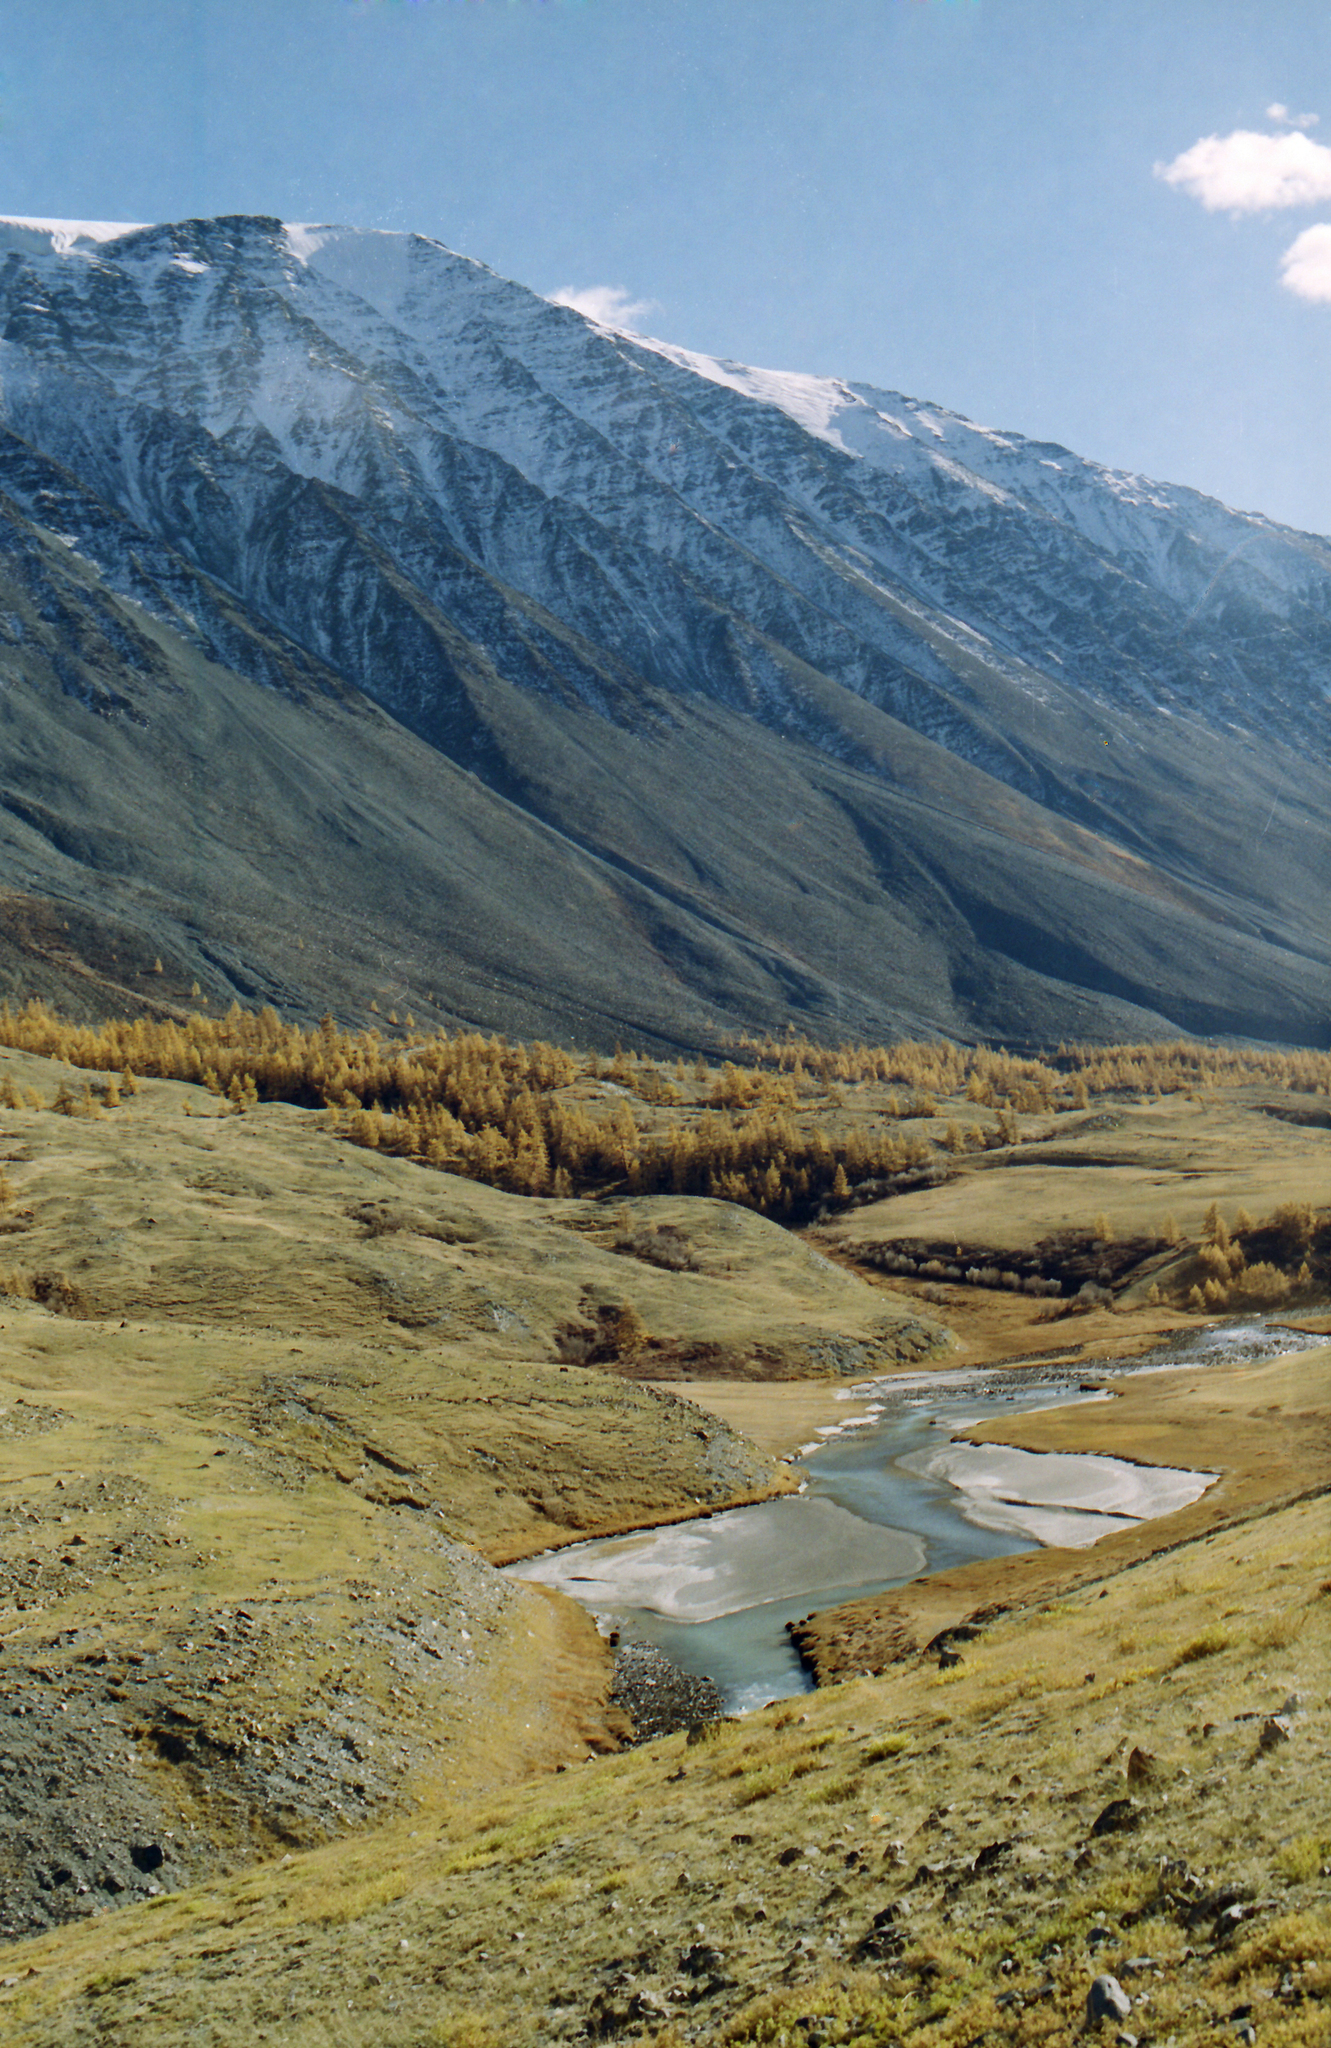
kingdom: Plantae
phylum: Tracheophyta
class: Pinopsida
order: Pinales
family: Pinaceae
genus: Larix
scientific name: Larix sibirica
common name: Siberian larch
